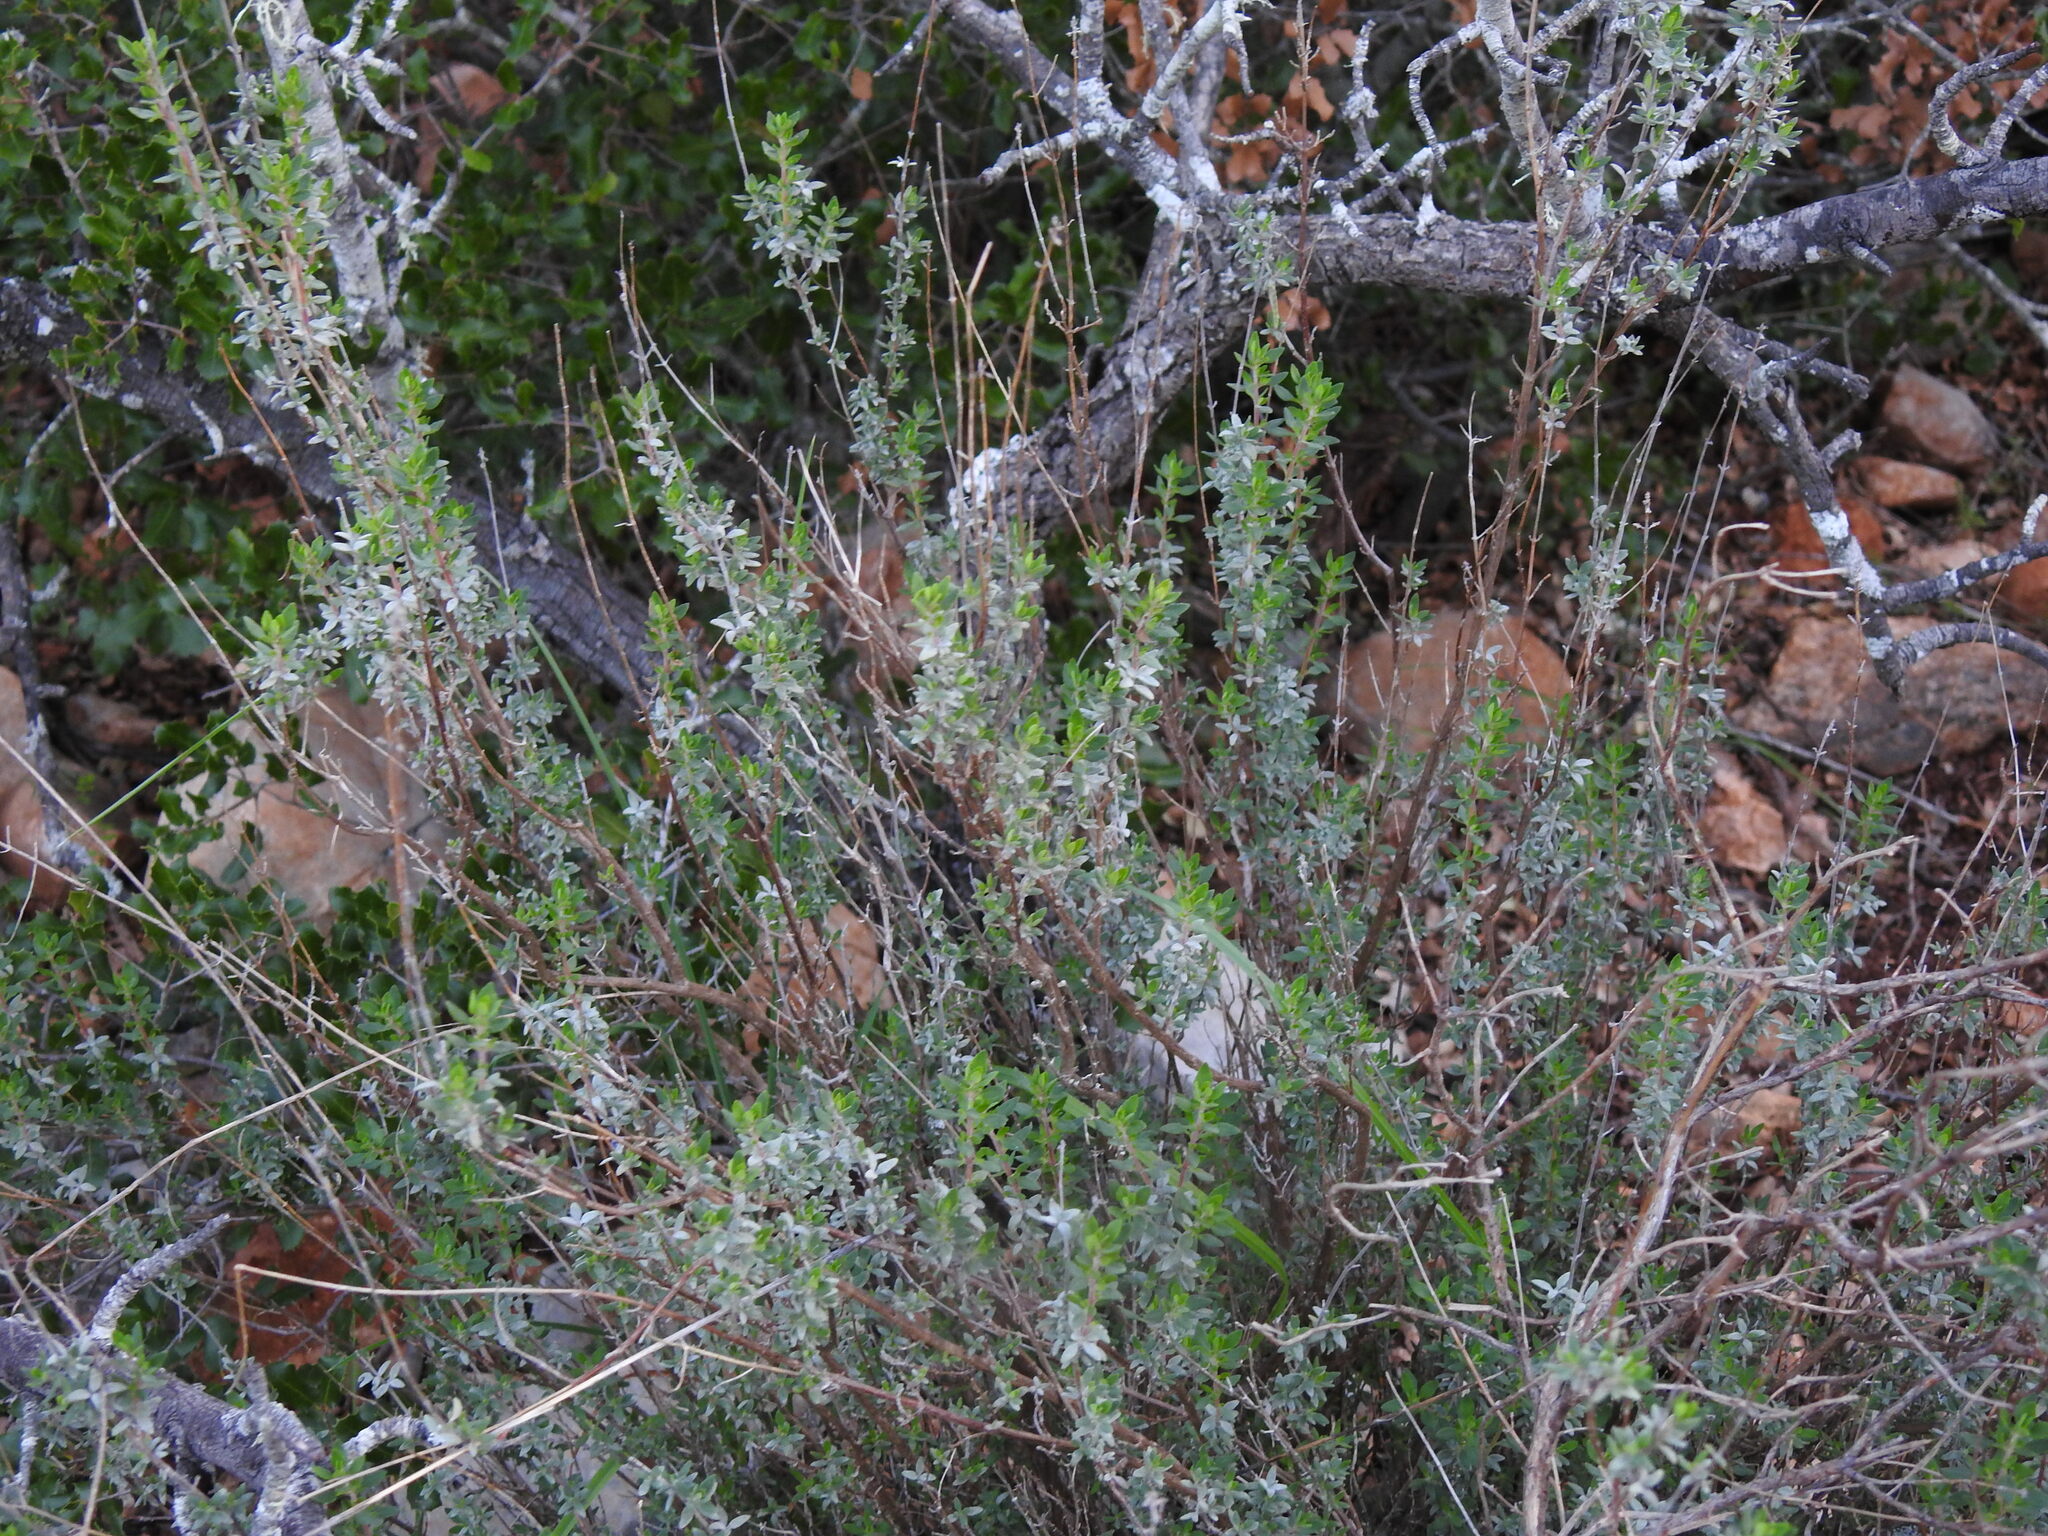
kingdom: Plantae
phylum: Tracheophyta
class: Magnoliopsida
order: Lamiales
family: Lamiaceae
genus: Thymus
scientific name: Thymus mastichina
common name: Mastic thyme
